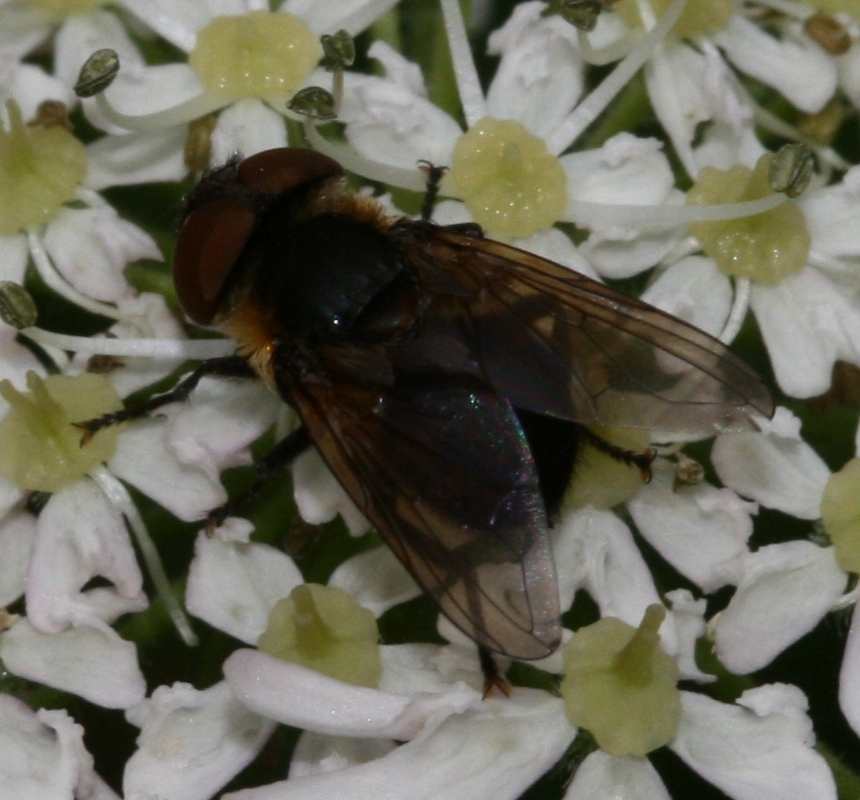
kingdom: Animalia
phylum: Arthropoda
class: Insecta
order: Diptera
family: Tachinidae
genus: Phasia
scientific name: Phasia hemiptera
